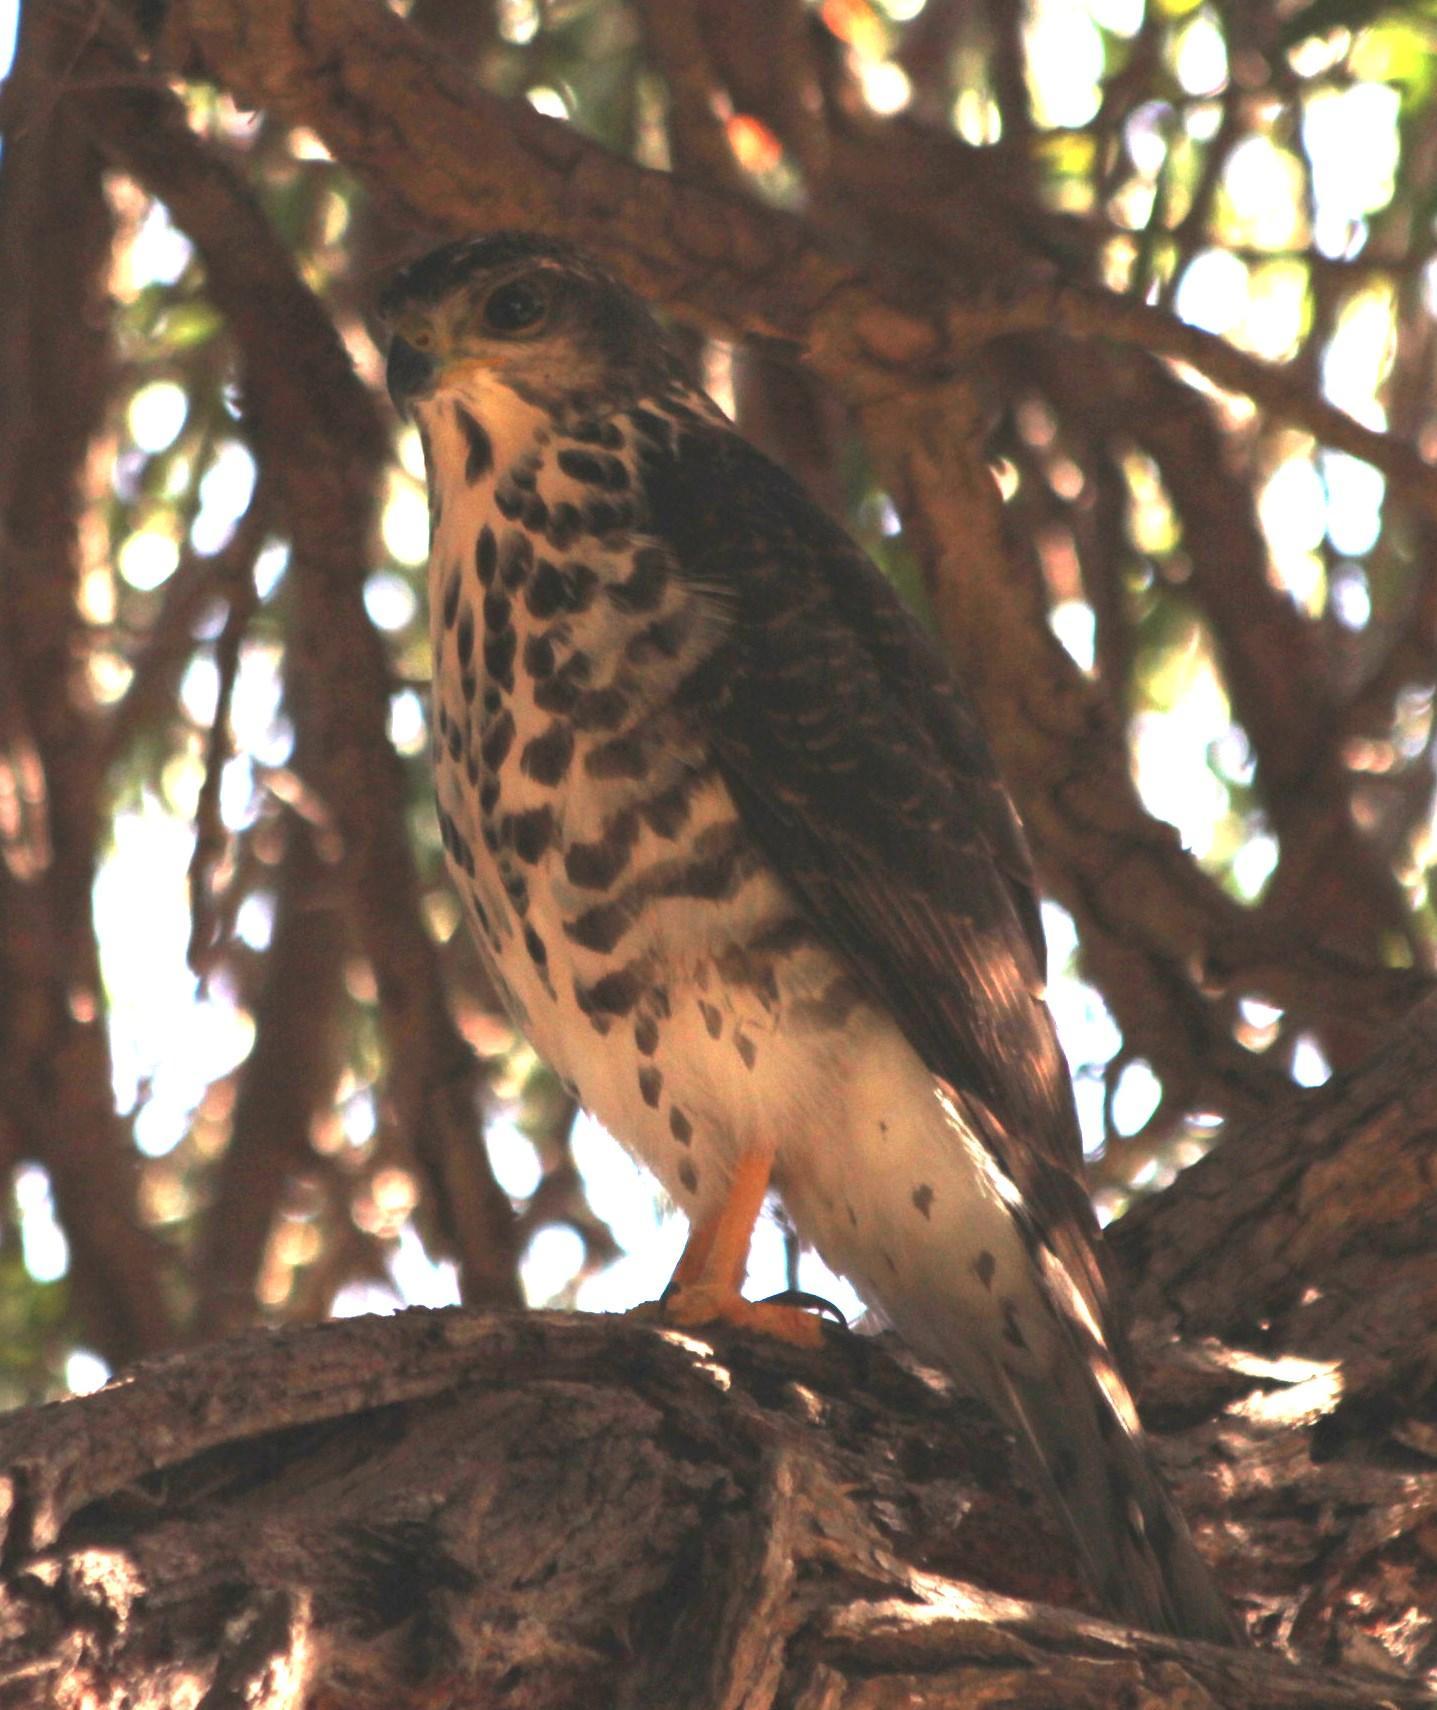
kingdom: Animalia
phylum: Chordata
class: Aves
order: Accipitriformes
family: Accipitridae
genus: Accipiter
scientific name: Accipiter tachiro
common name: African goshawk
